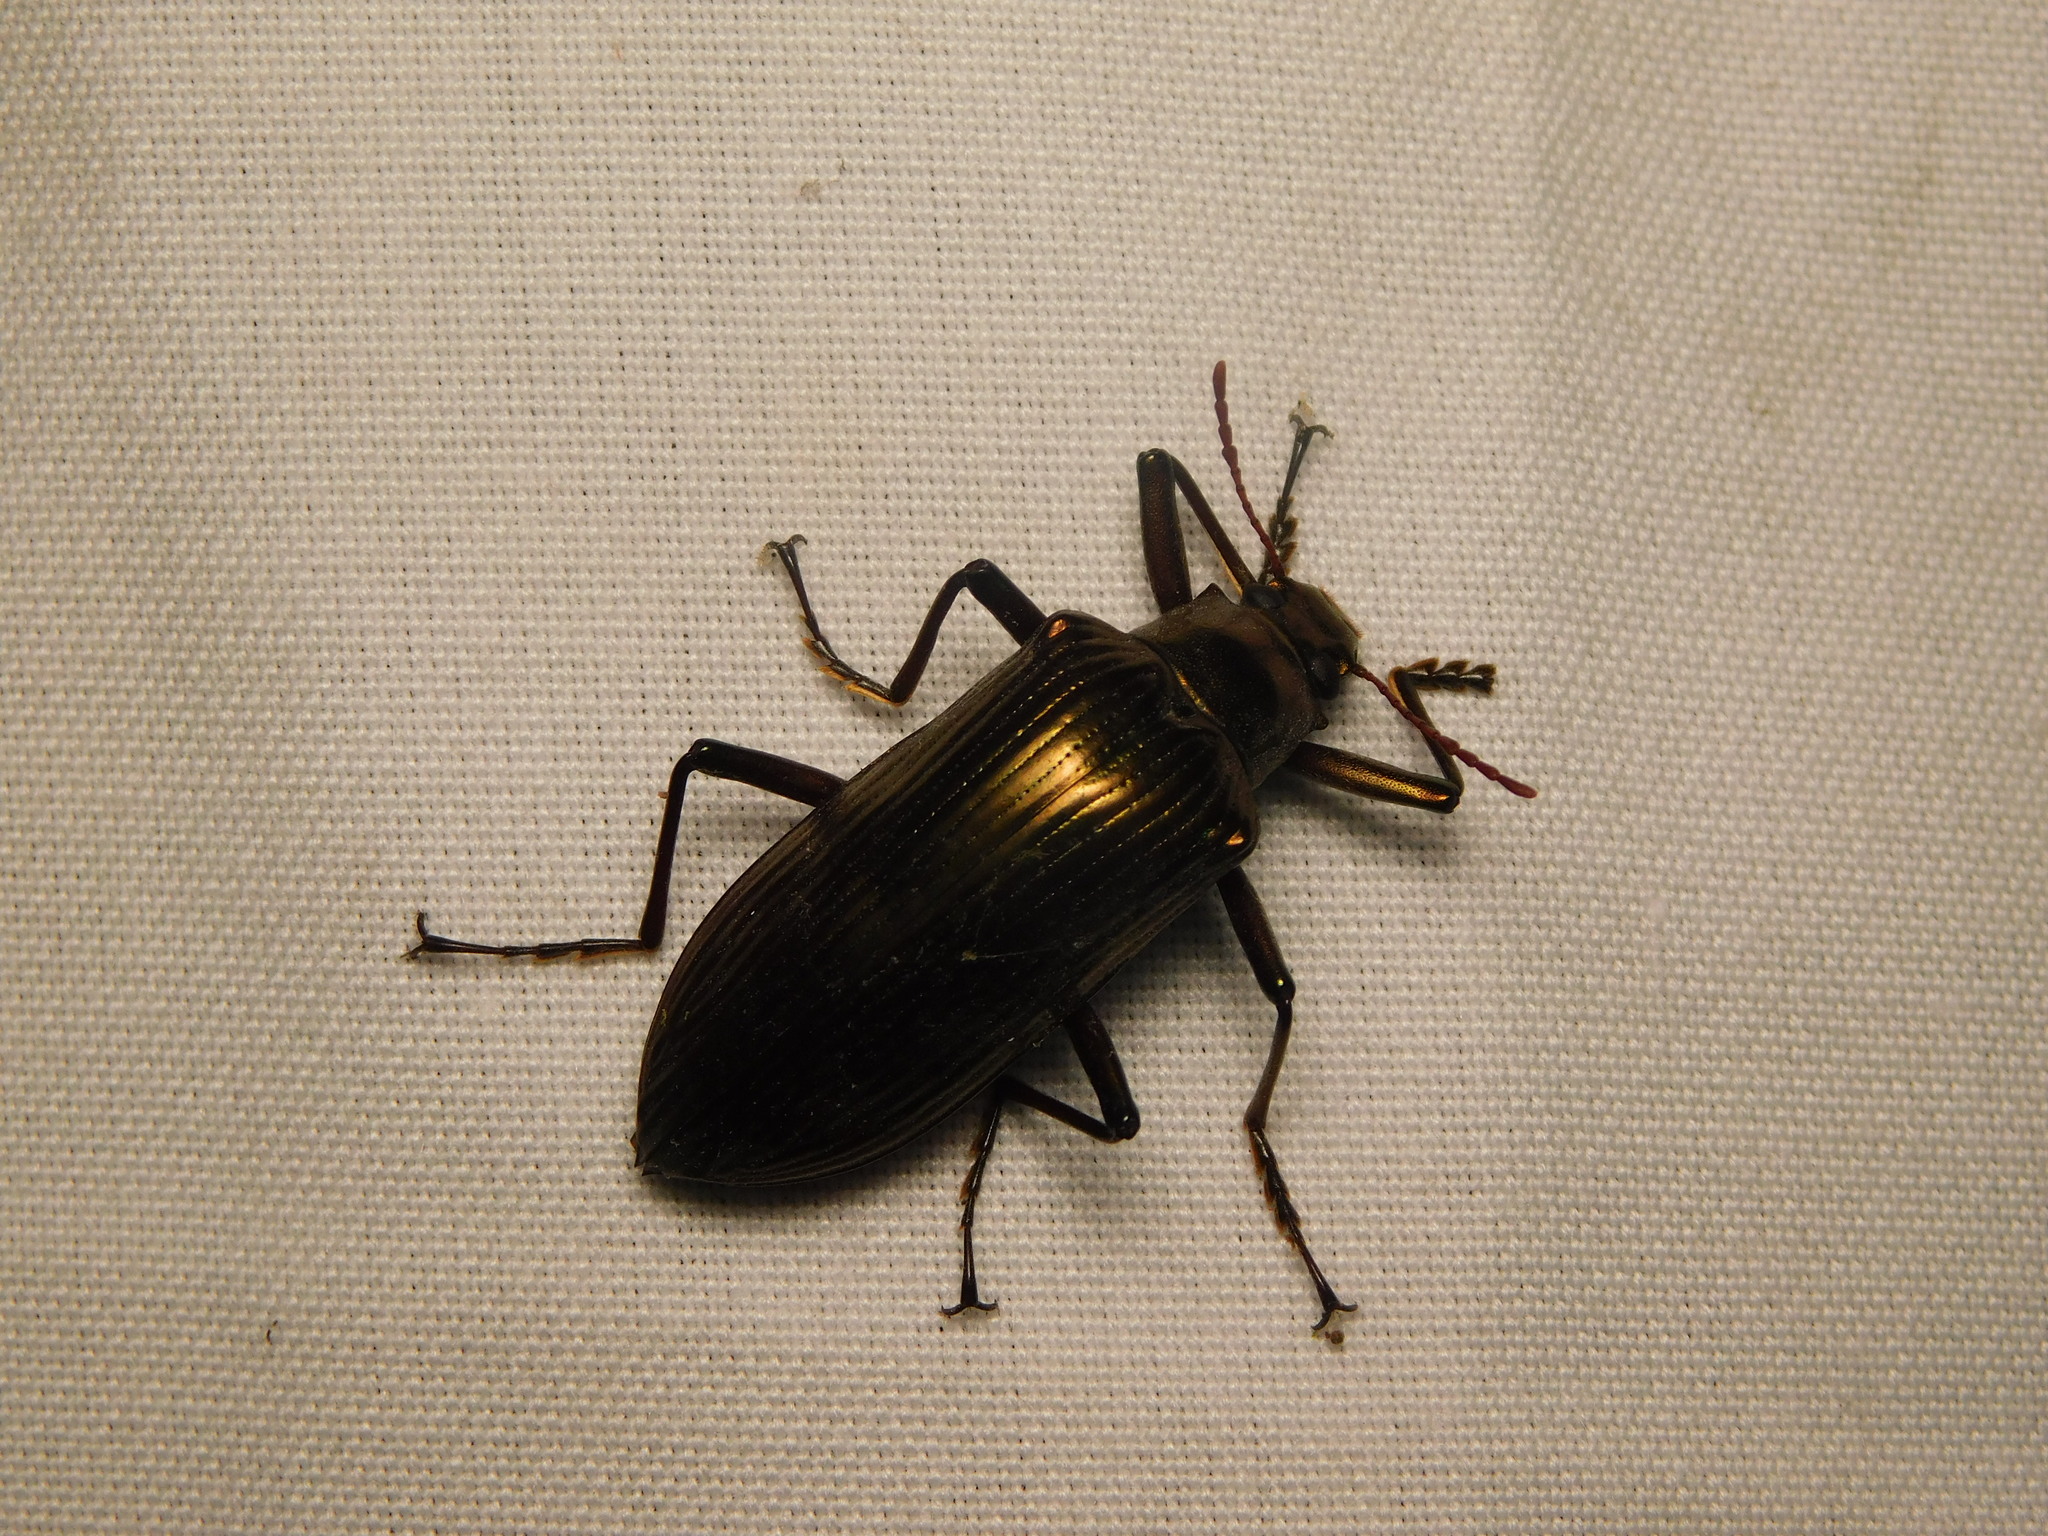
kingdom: Animalia
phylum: Arthropoda
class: Insecta
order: Coleoptera
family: Tenebrionidae
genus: Gebienocamaria
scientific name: Gebienocamaria
